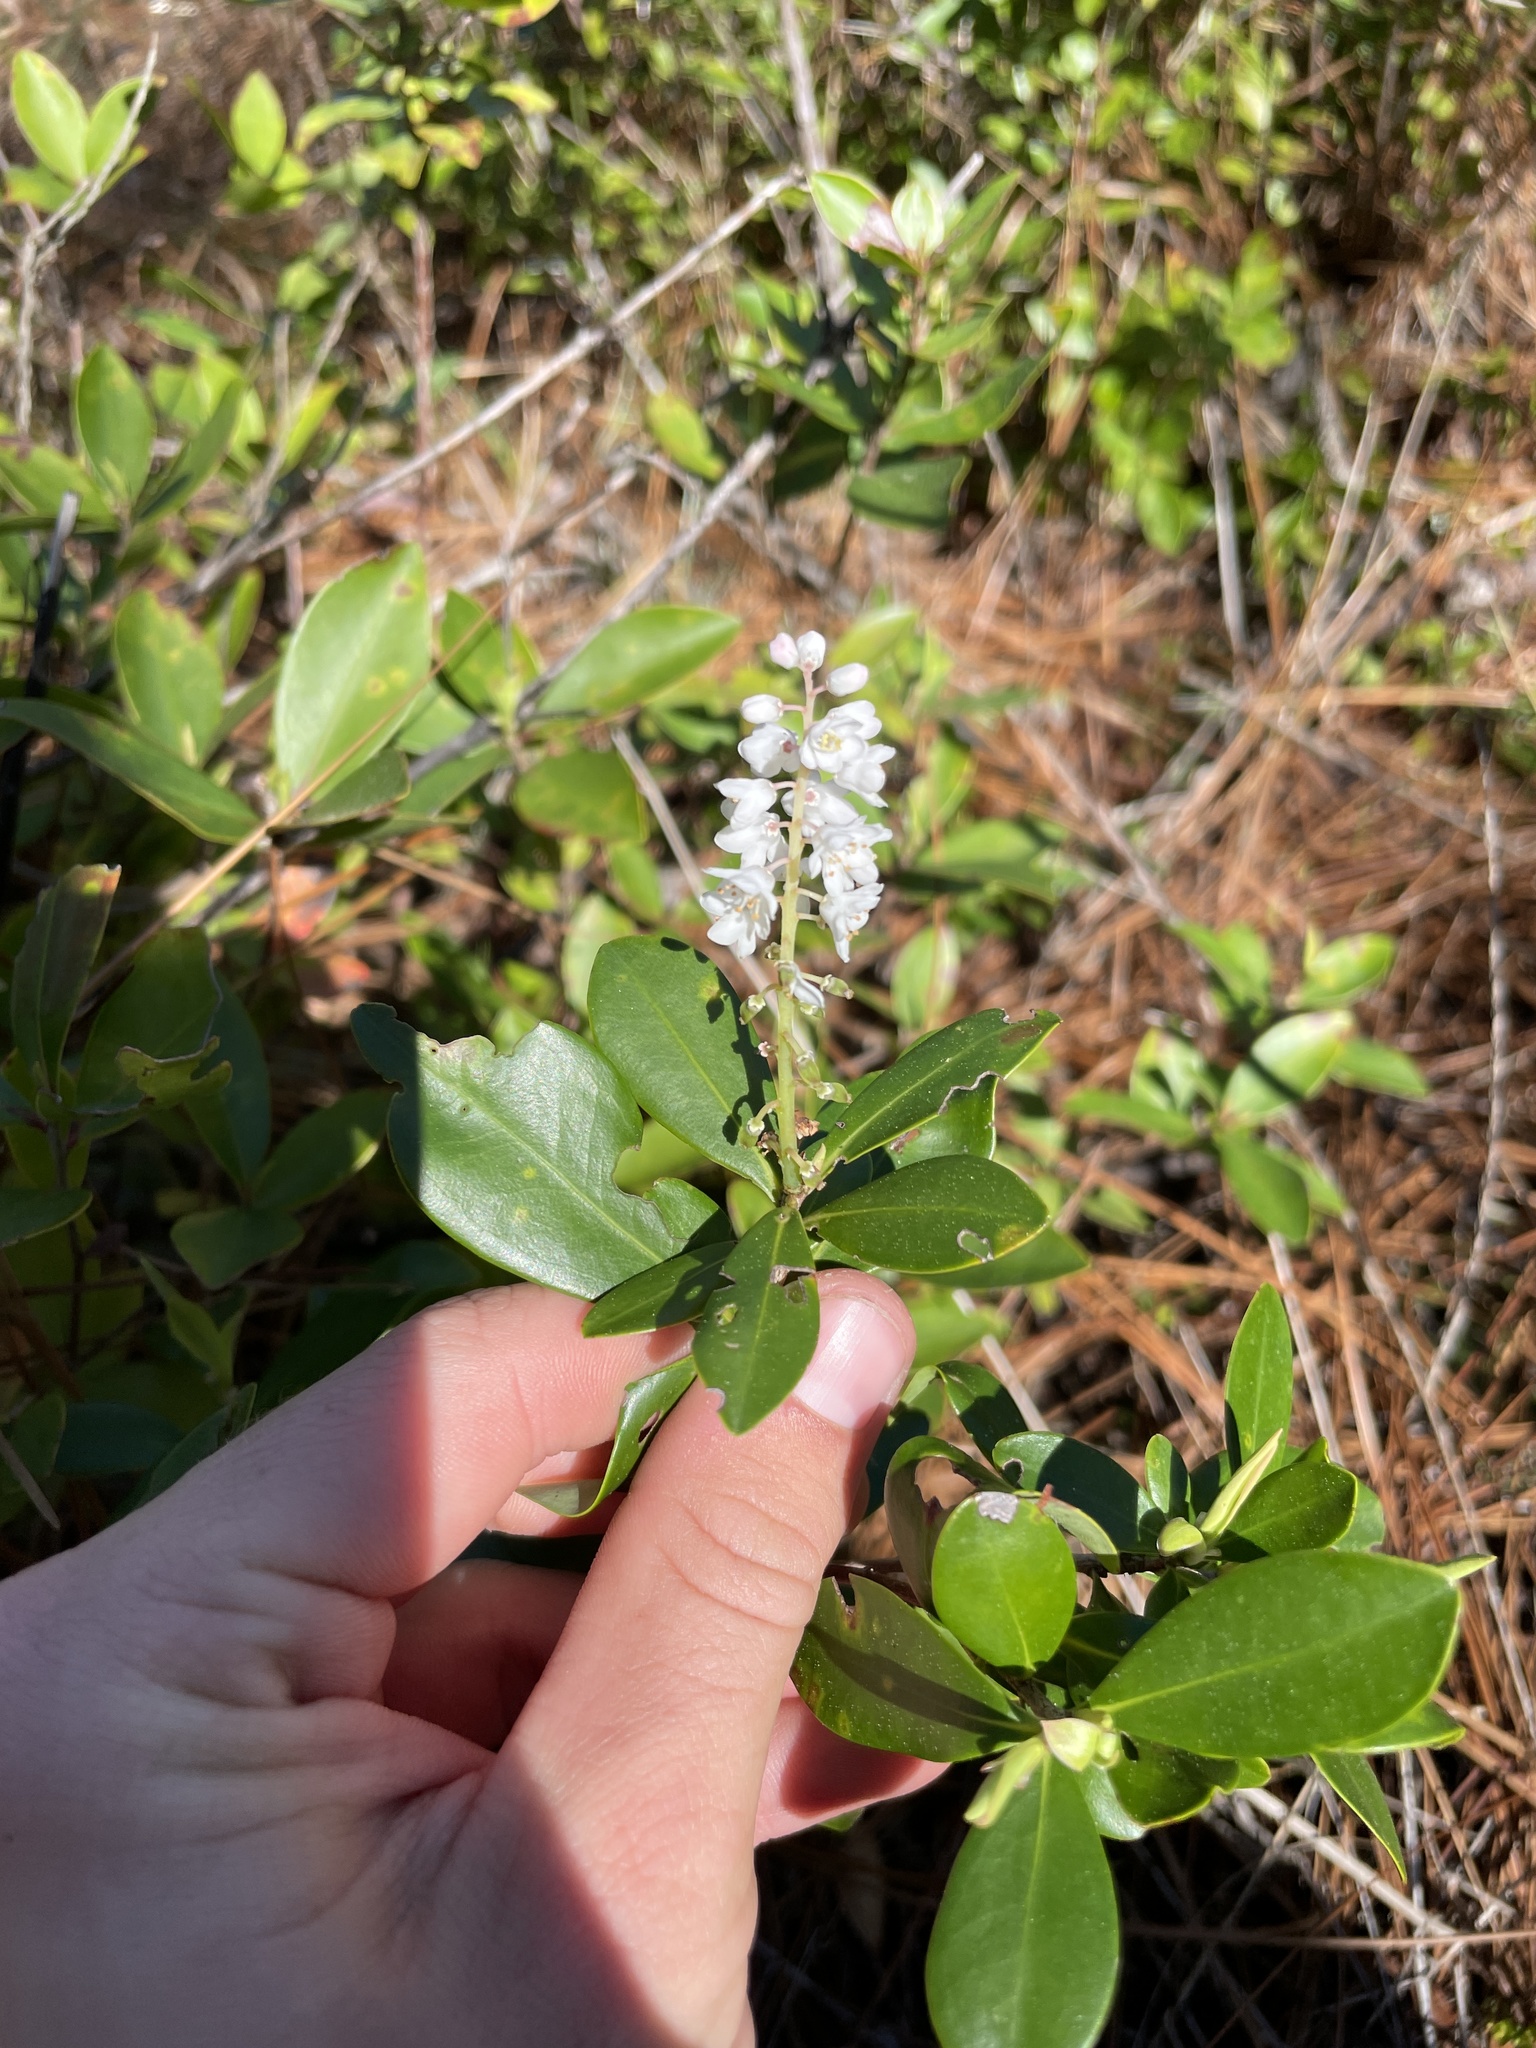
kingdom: Plantae
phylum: Tracheophyta
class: Magnoliopsida
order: Ericales
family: Cyrillaceae
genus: Cliftonia
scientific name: Cliftonia monophylla
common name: Titi
